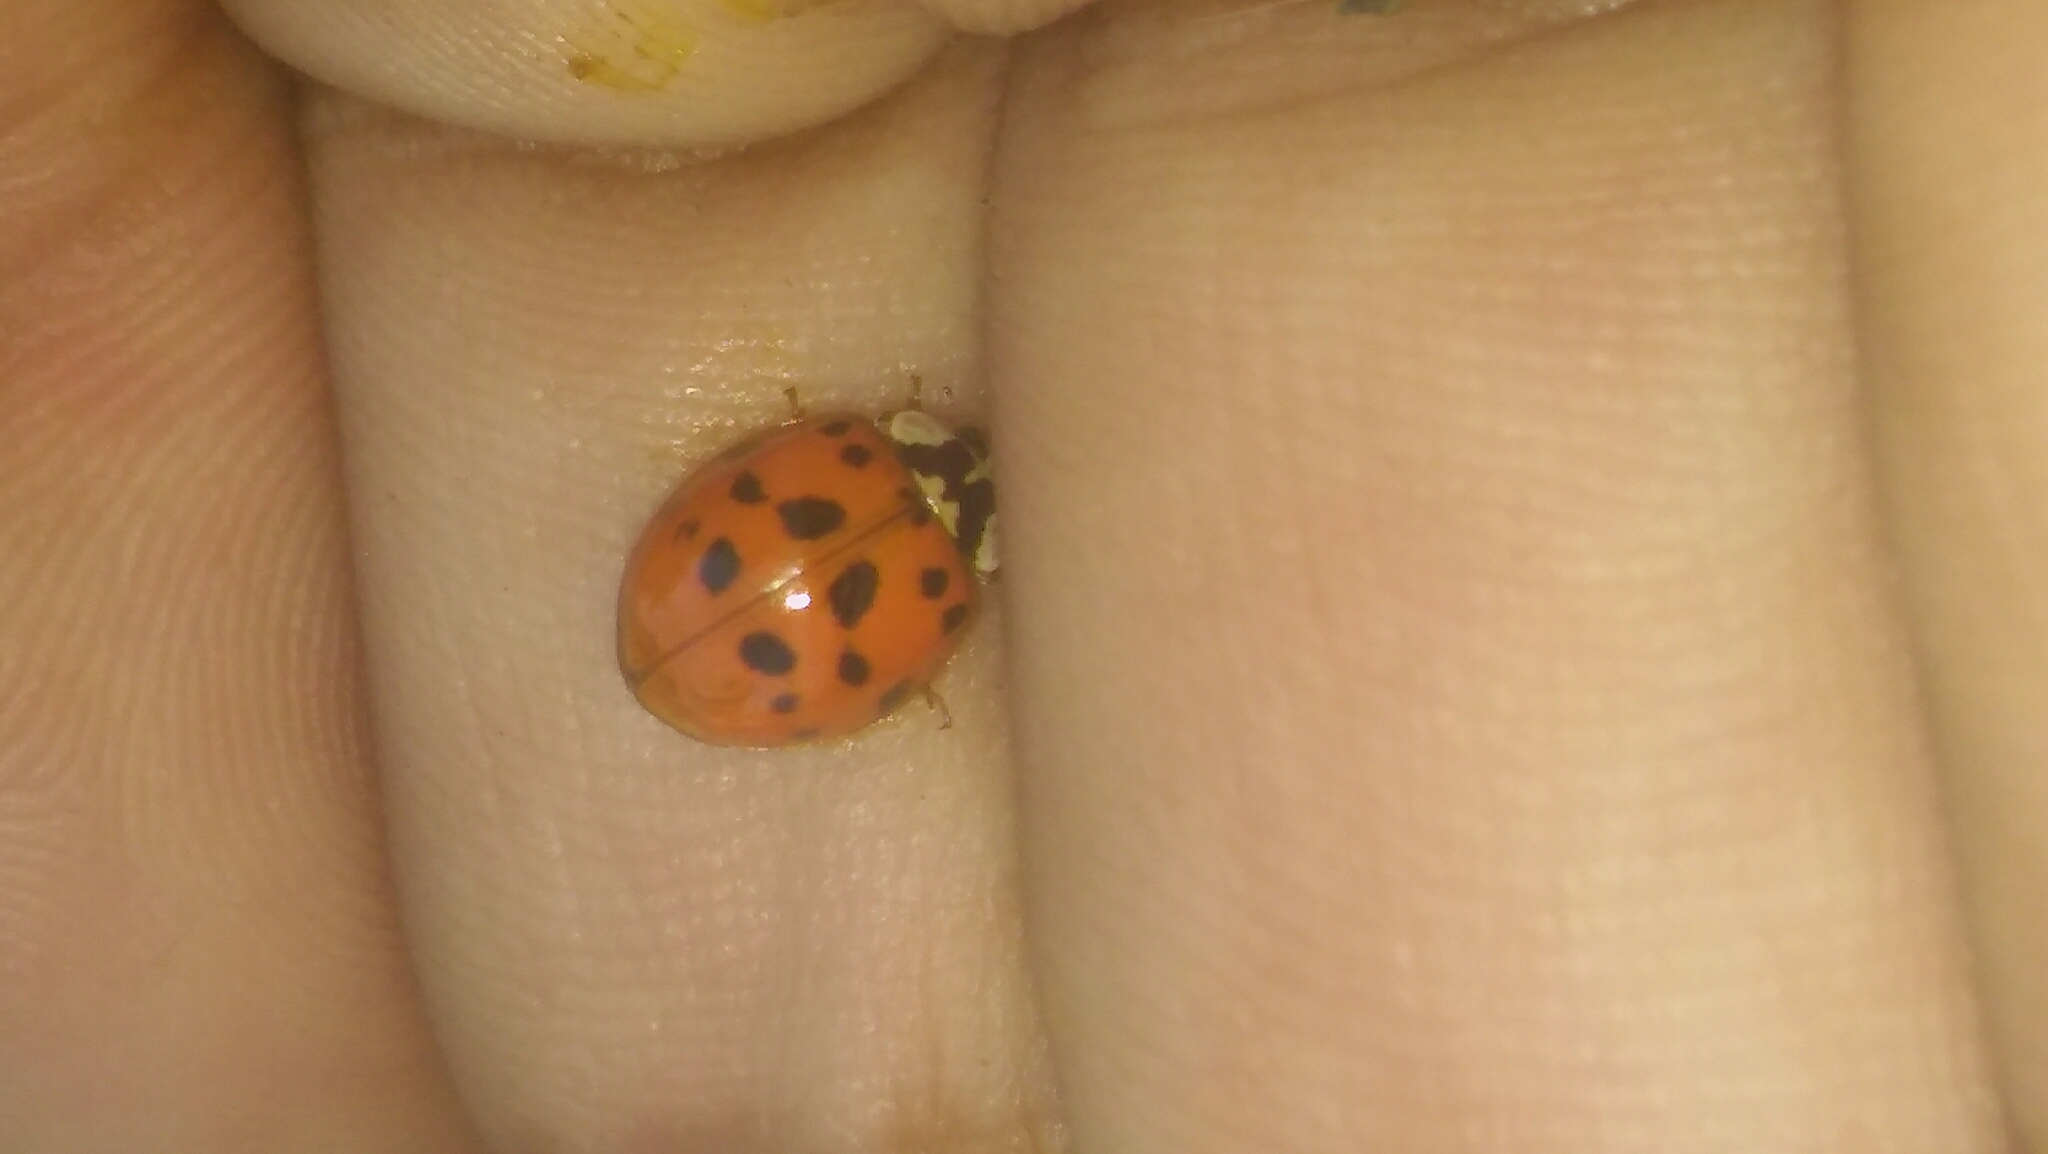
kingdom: Animalia
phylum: Arthropoda
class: Insecta
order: Coleoptera
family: Coccinellidae
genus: Harmonia
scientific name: Harmonia axyridis
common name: Harlequin ladybird
